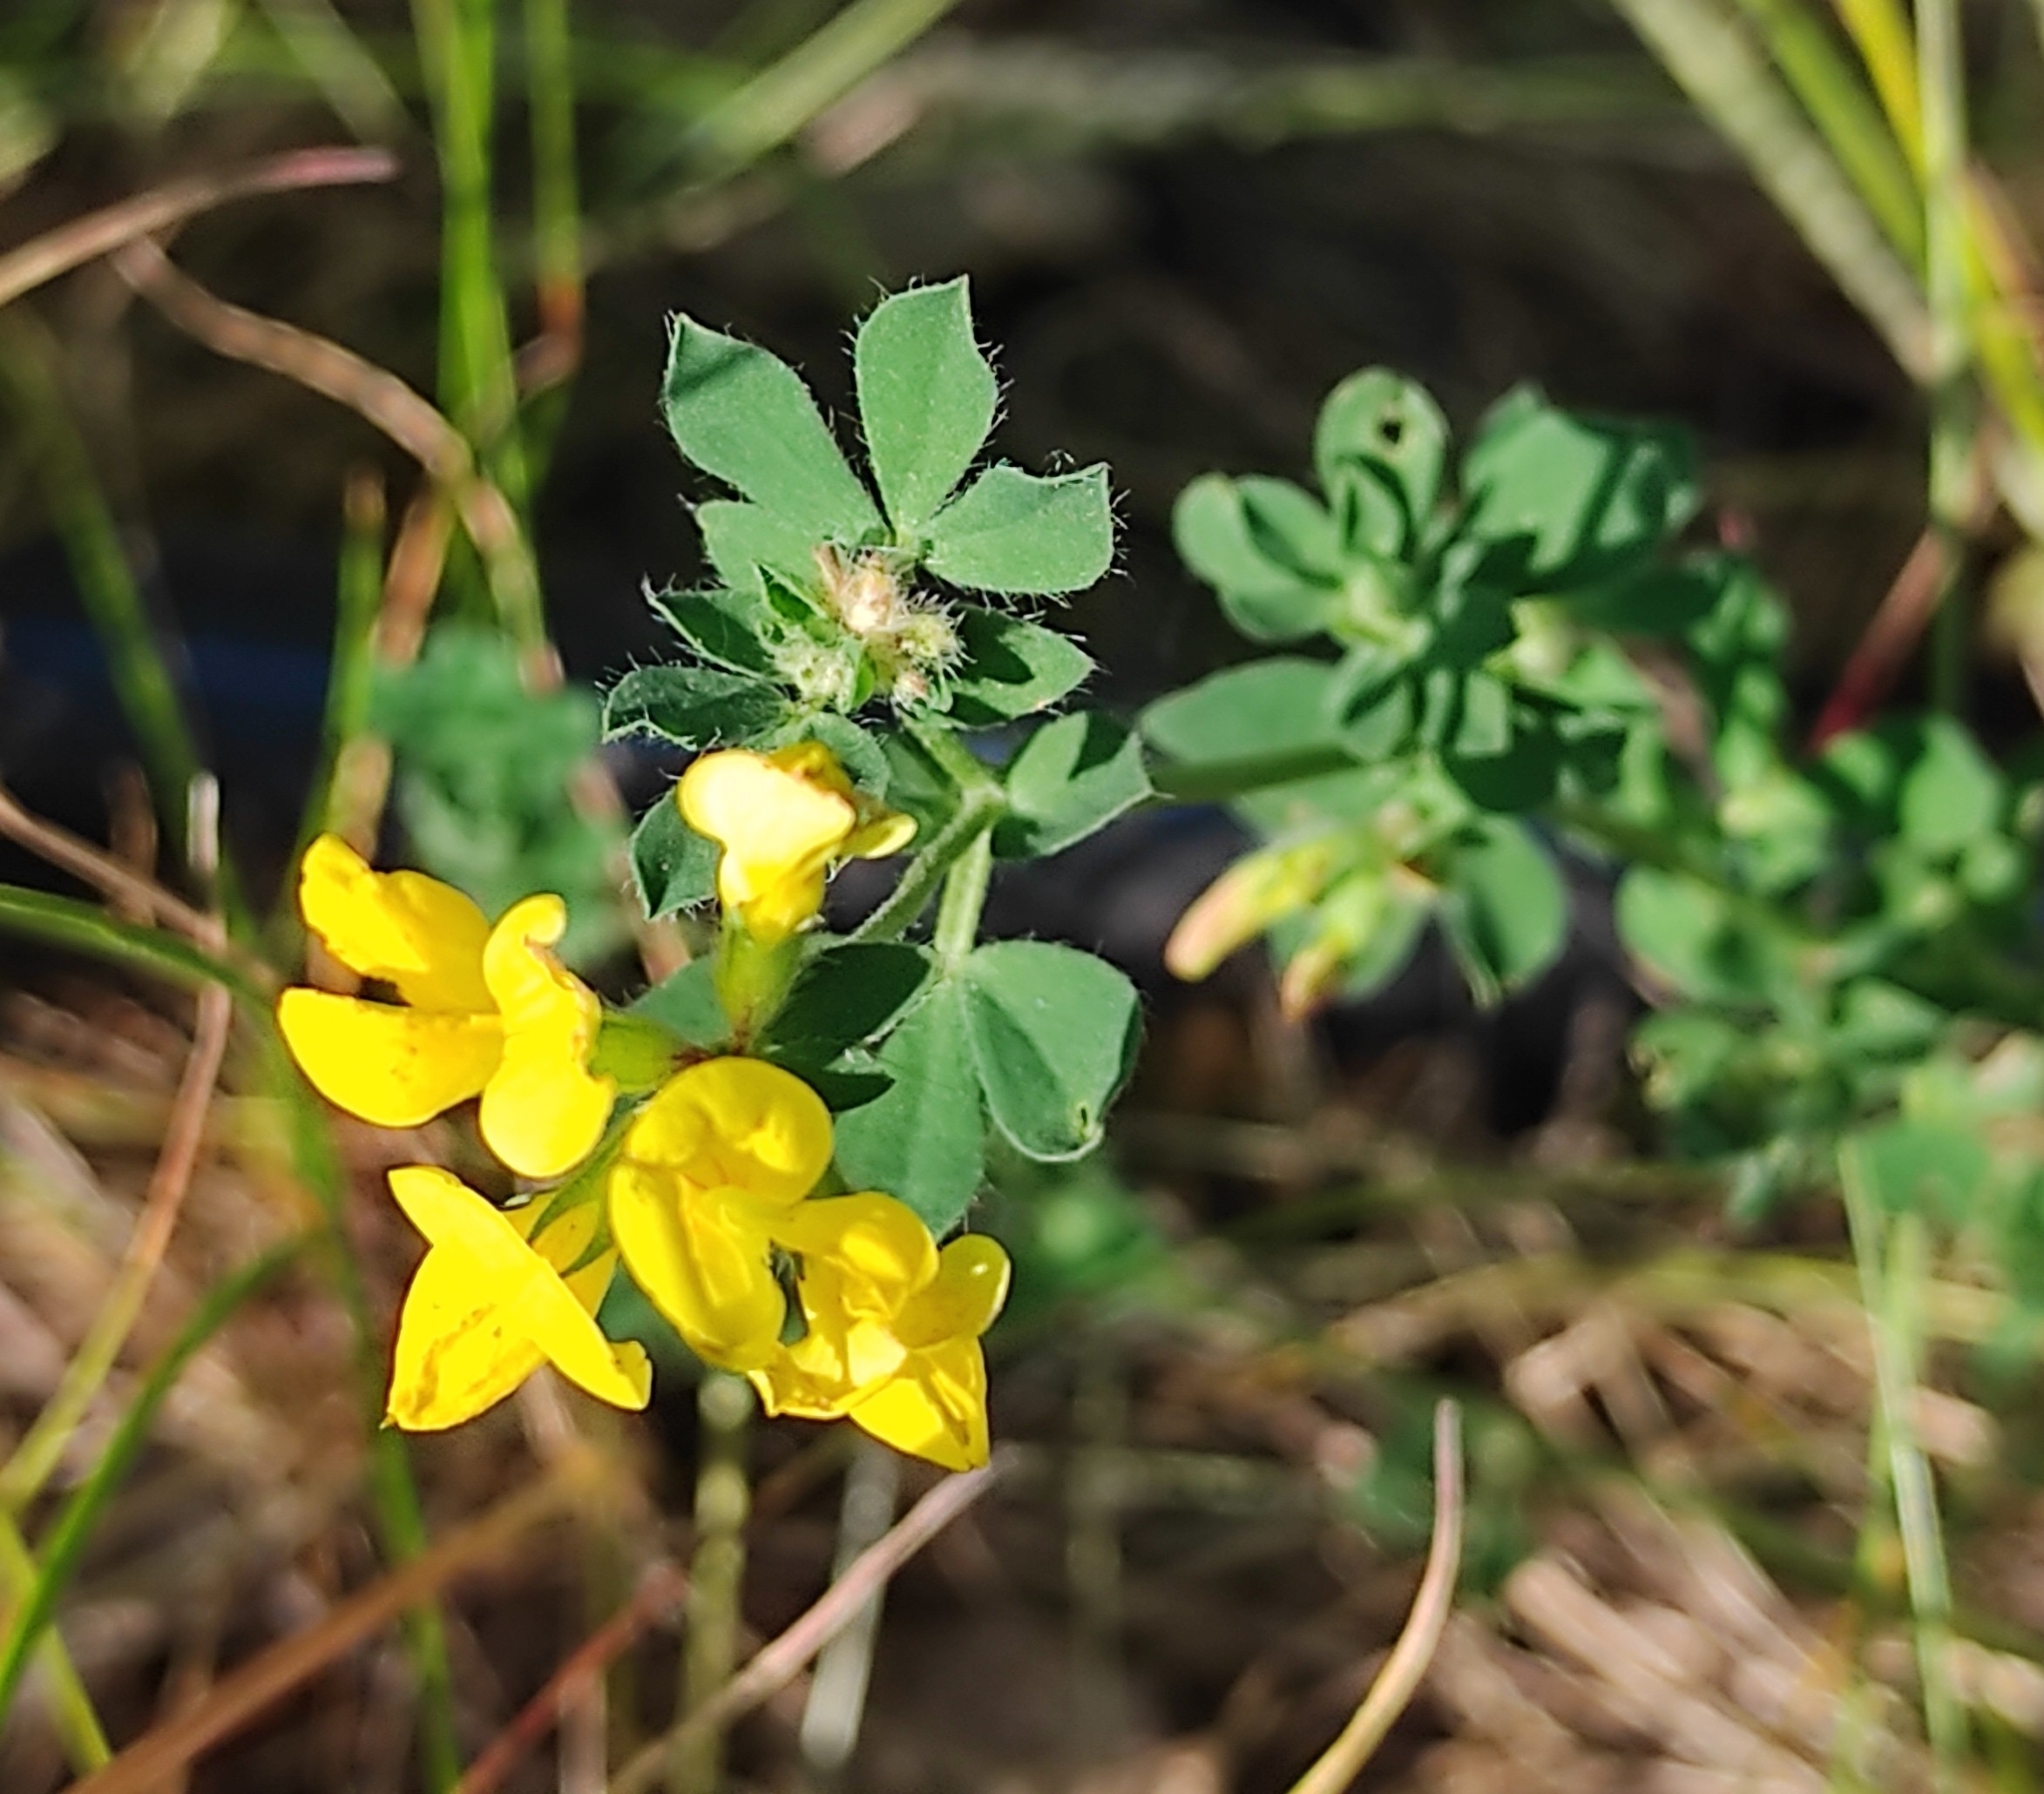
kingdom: Plantae
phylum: Tracheophyta
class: Magnoliopsida
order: Fabales
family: Fabaceae
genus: Lotus
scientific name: Lotus corniculatus
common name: Common bird's-foot-trefoil
